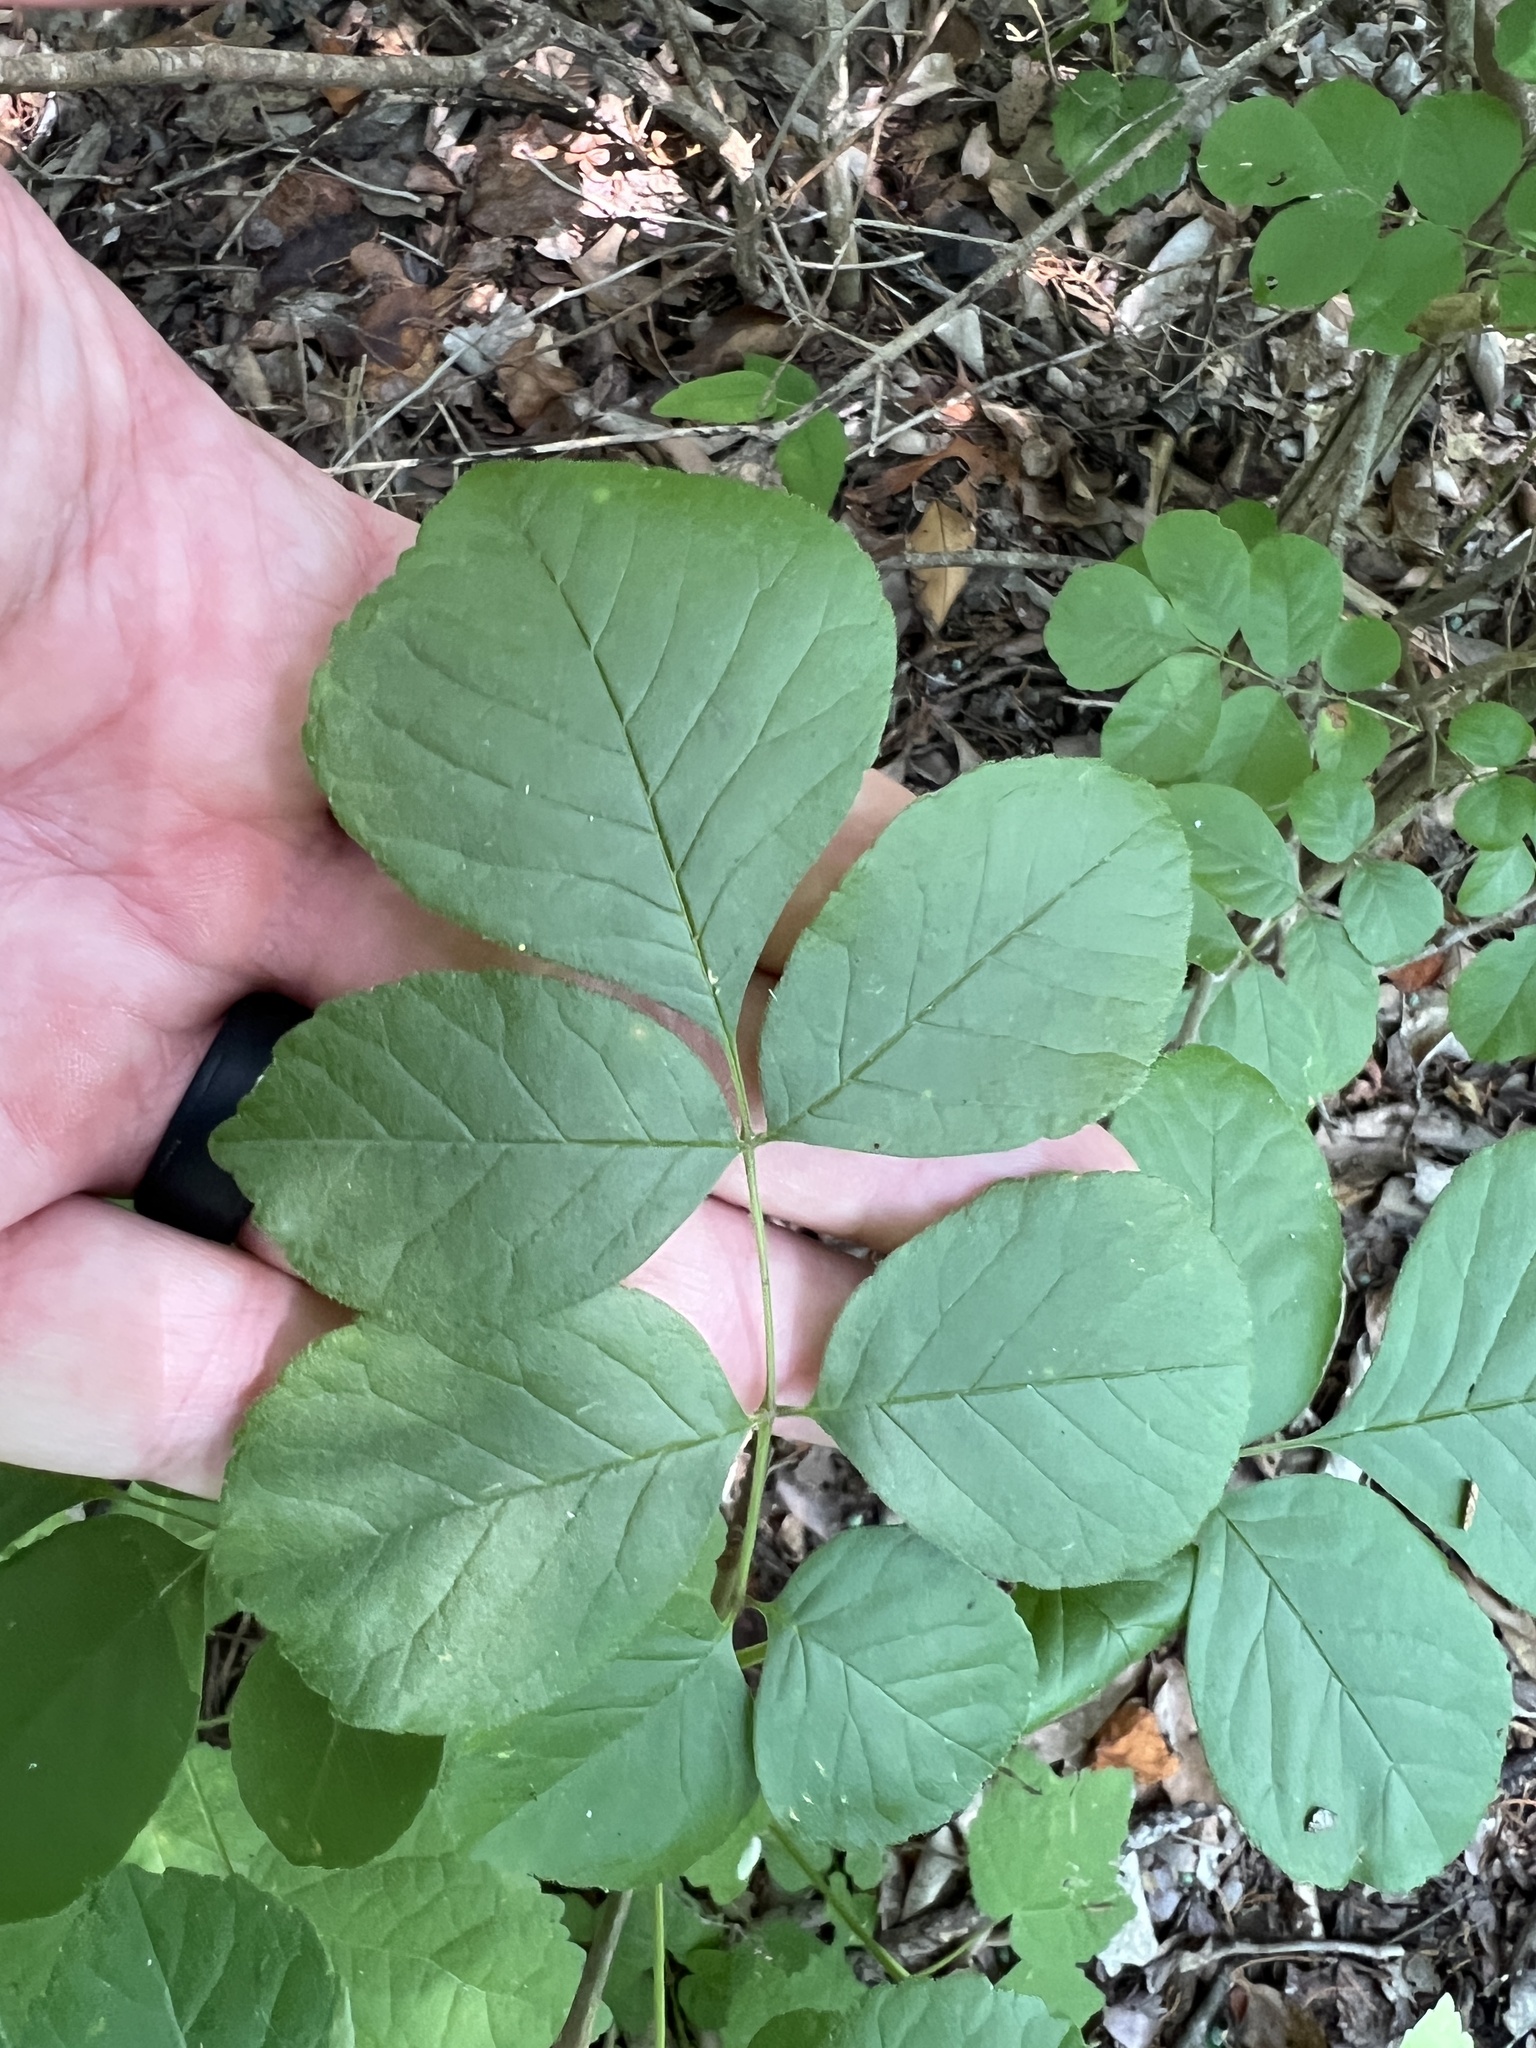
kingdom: Plantae
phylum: Tracheophyta
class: Magnoliopsida
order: Lamiales
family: Oleaceae
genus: Fraxinus
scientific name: Fraxinus albicans
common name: Texas ash
